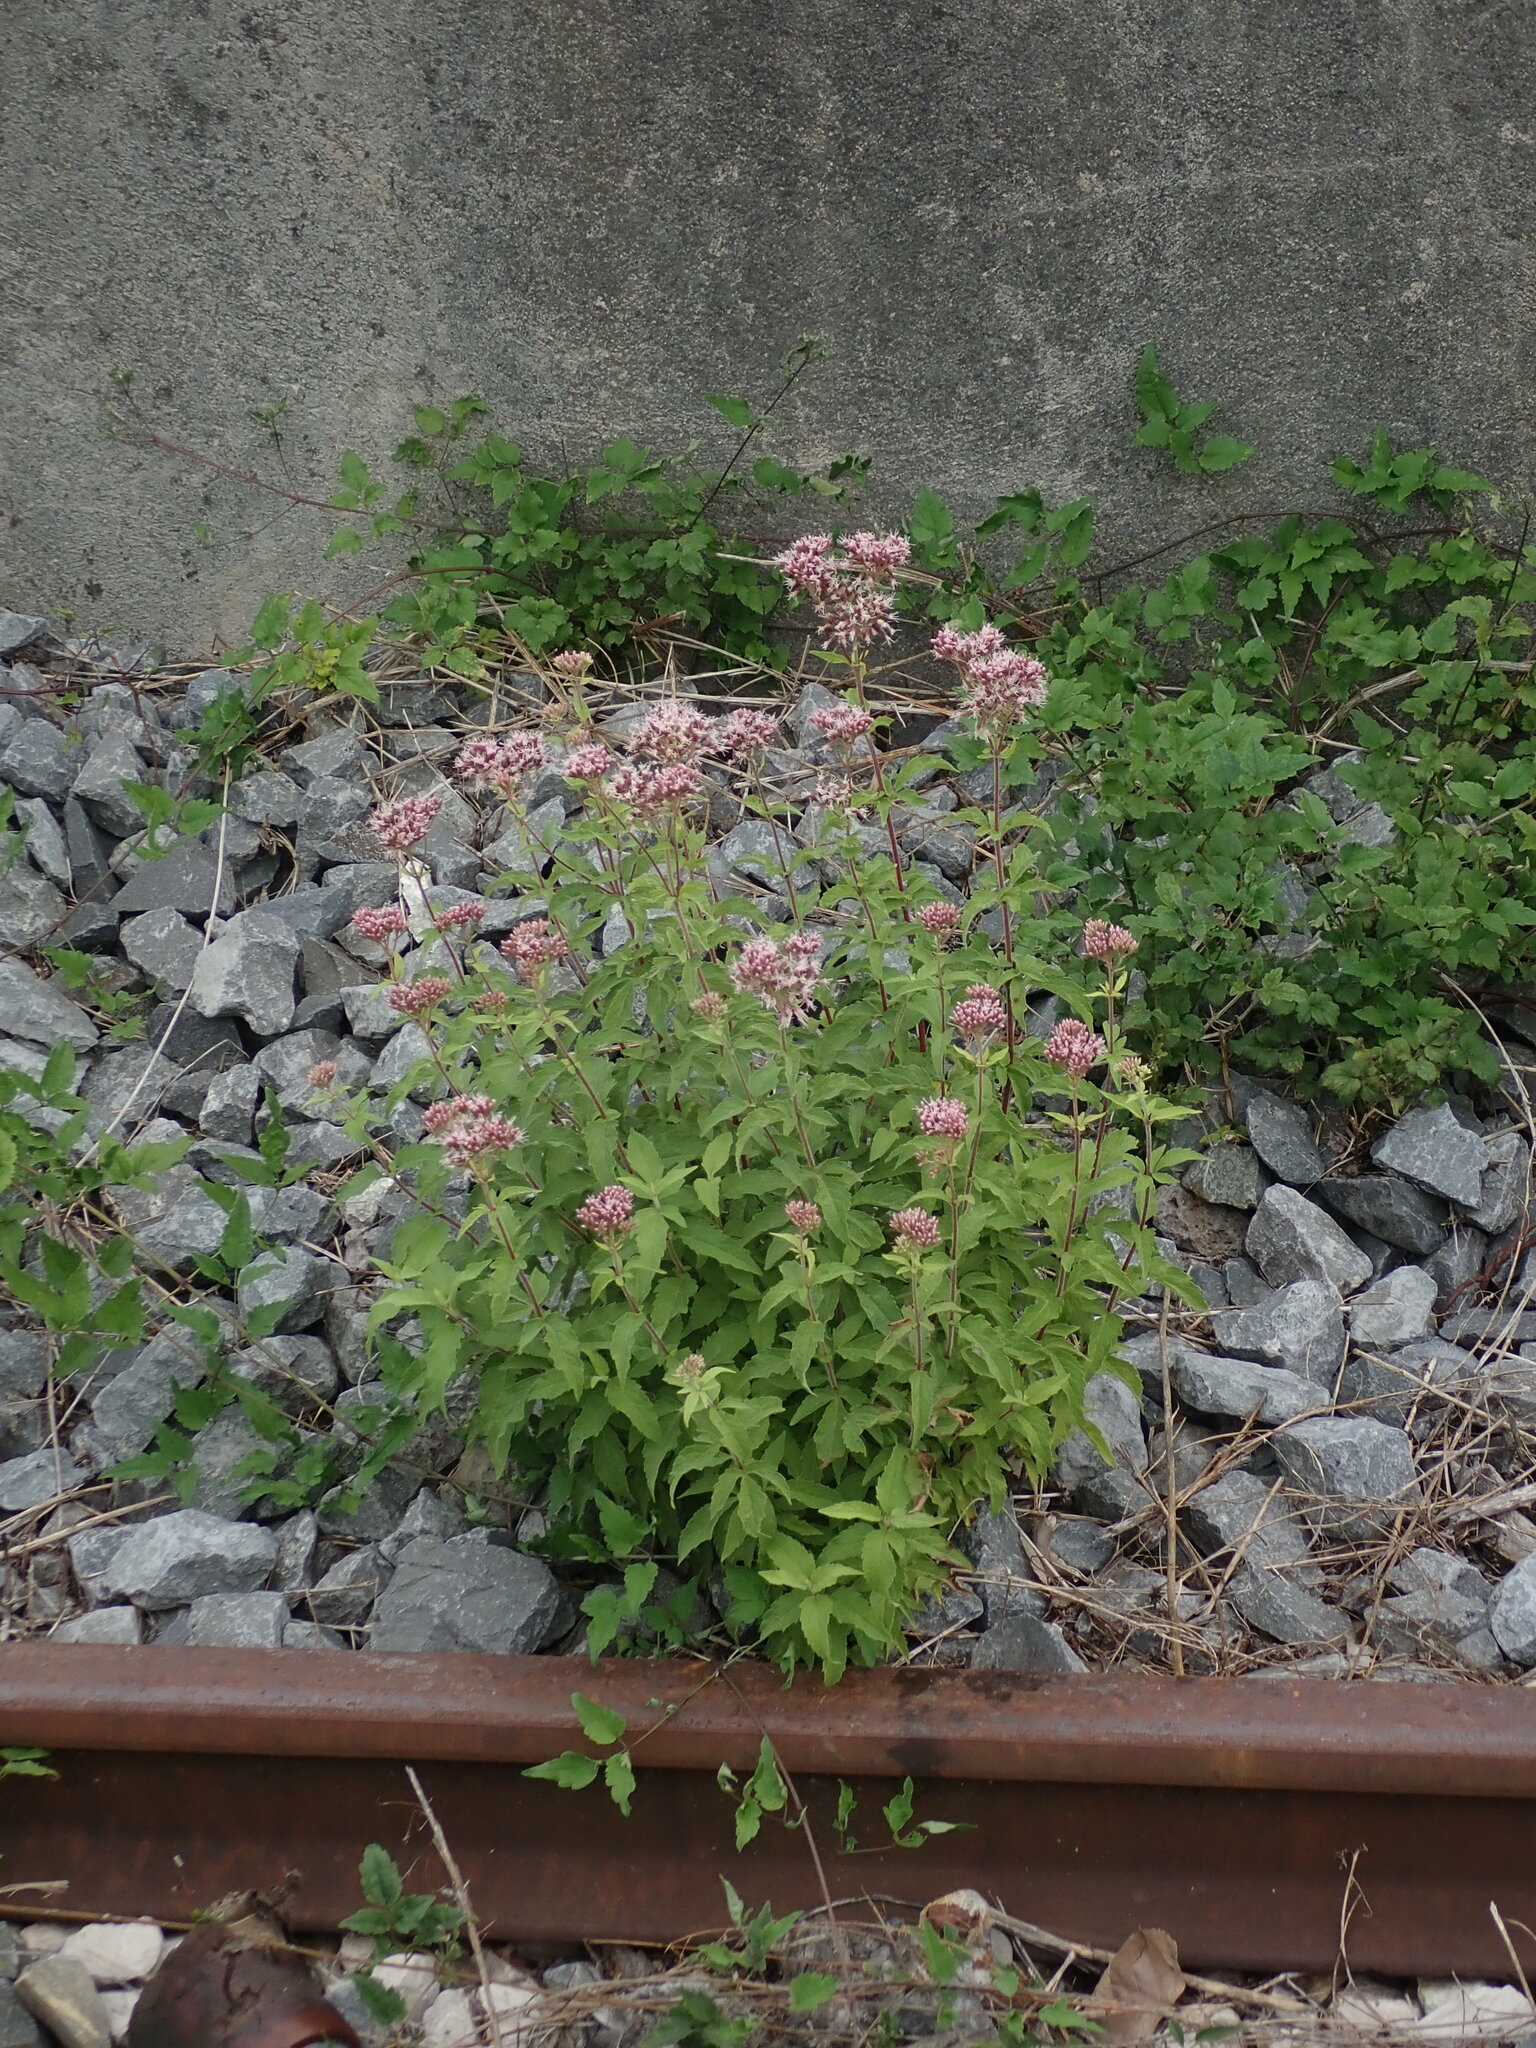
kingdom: Plantae
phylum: Tracheophyta
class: Magnoliopsida
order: Asterales
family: Asteraceae
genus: Eupatorium
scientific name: Eupatorium cannabinum
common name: Hemp-agrimony
